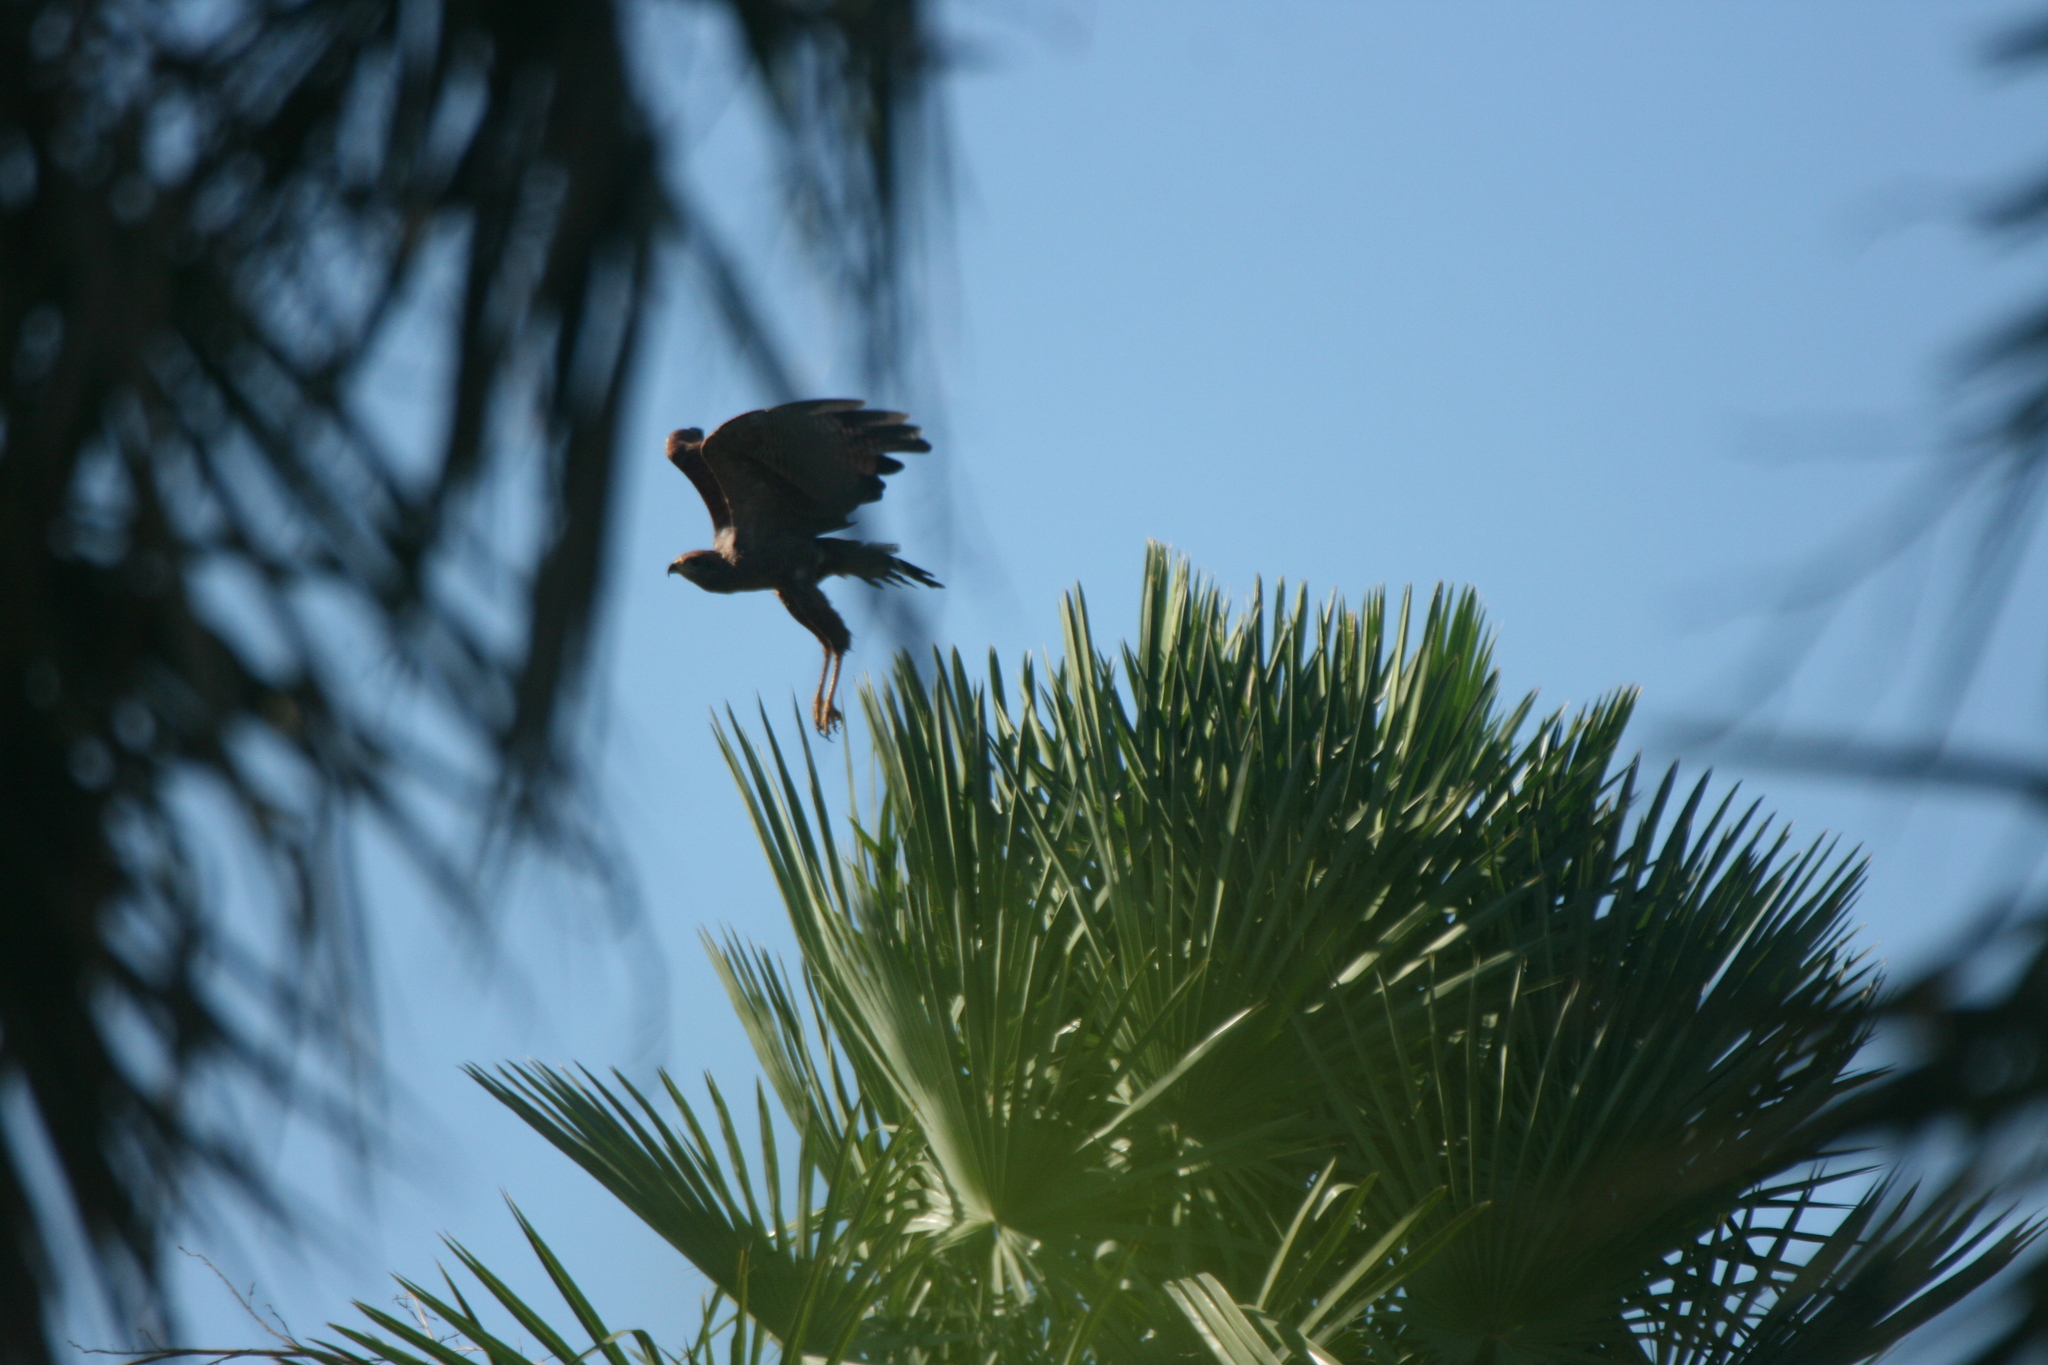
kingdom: Animalia
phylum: Chordata
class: Aves
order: Accipitriformes
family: Accipitridae
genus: Buteogallus
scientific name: Buteogallus meridionalis
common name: Savanna hawk
